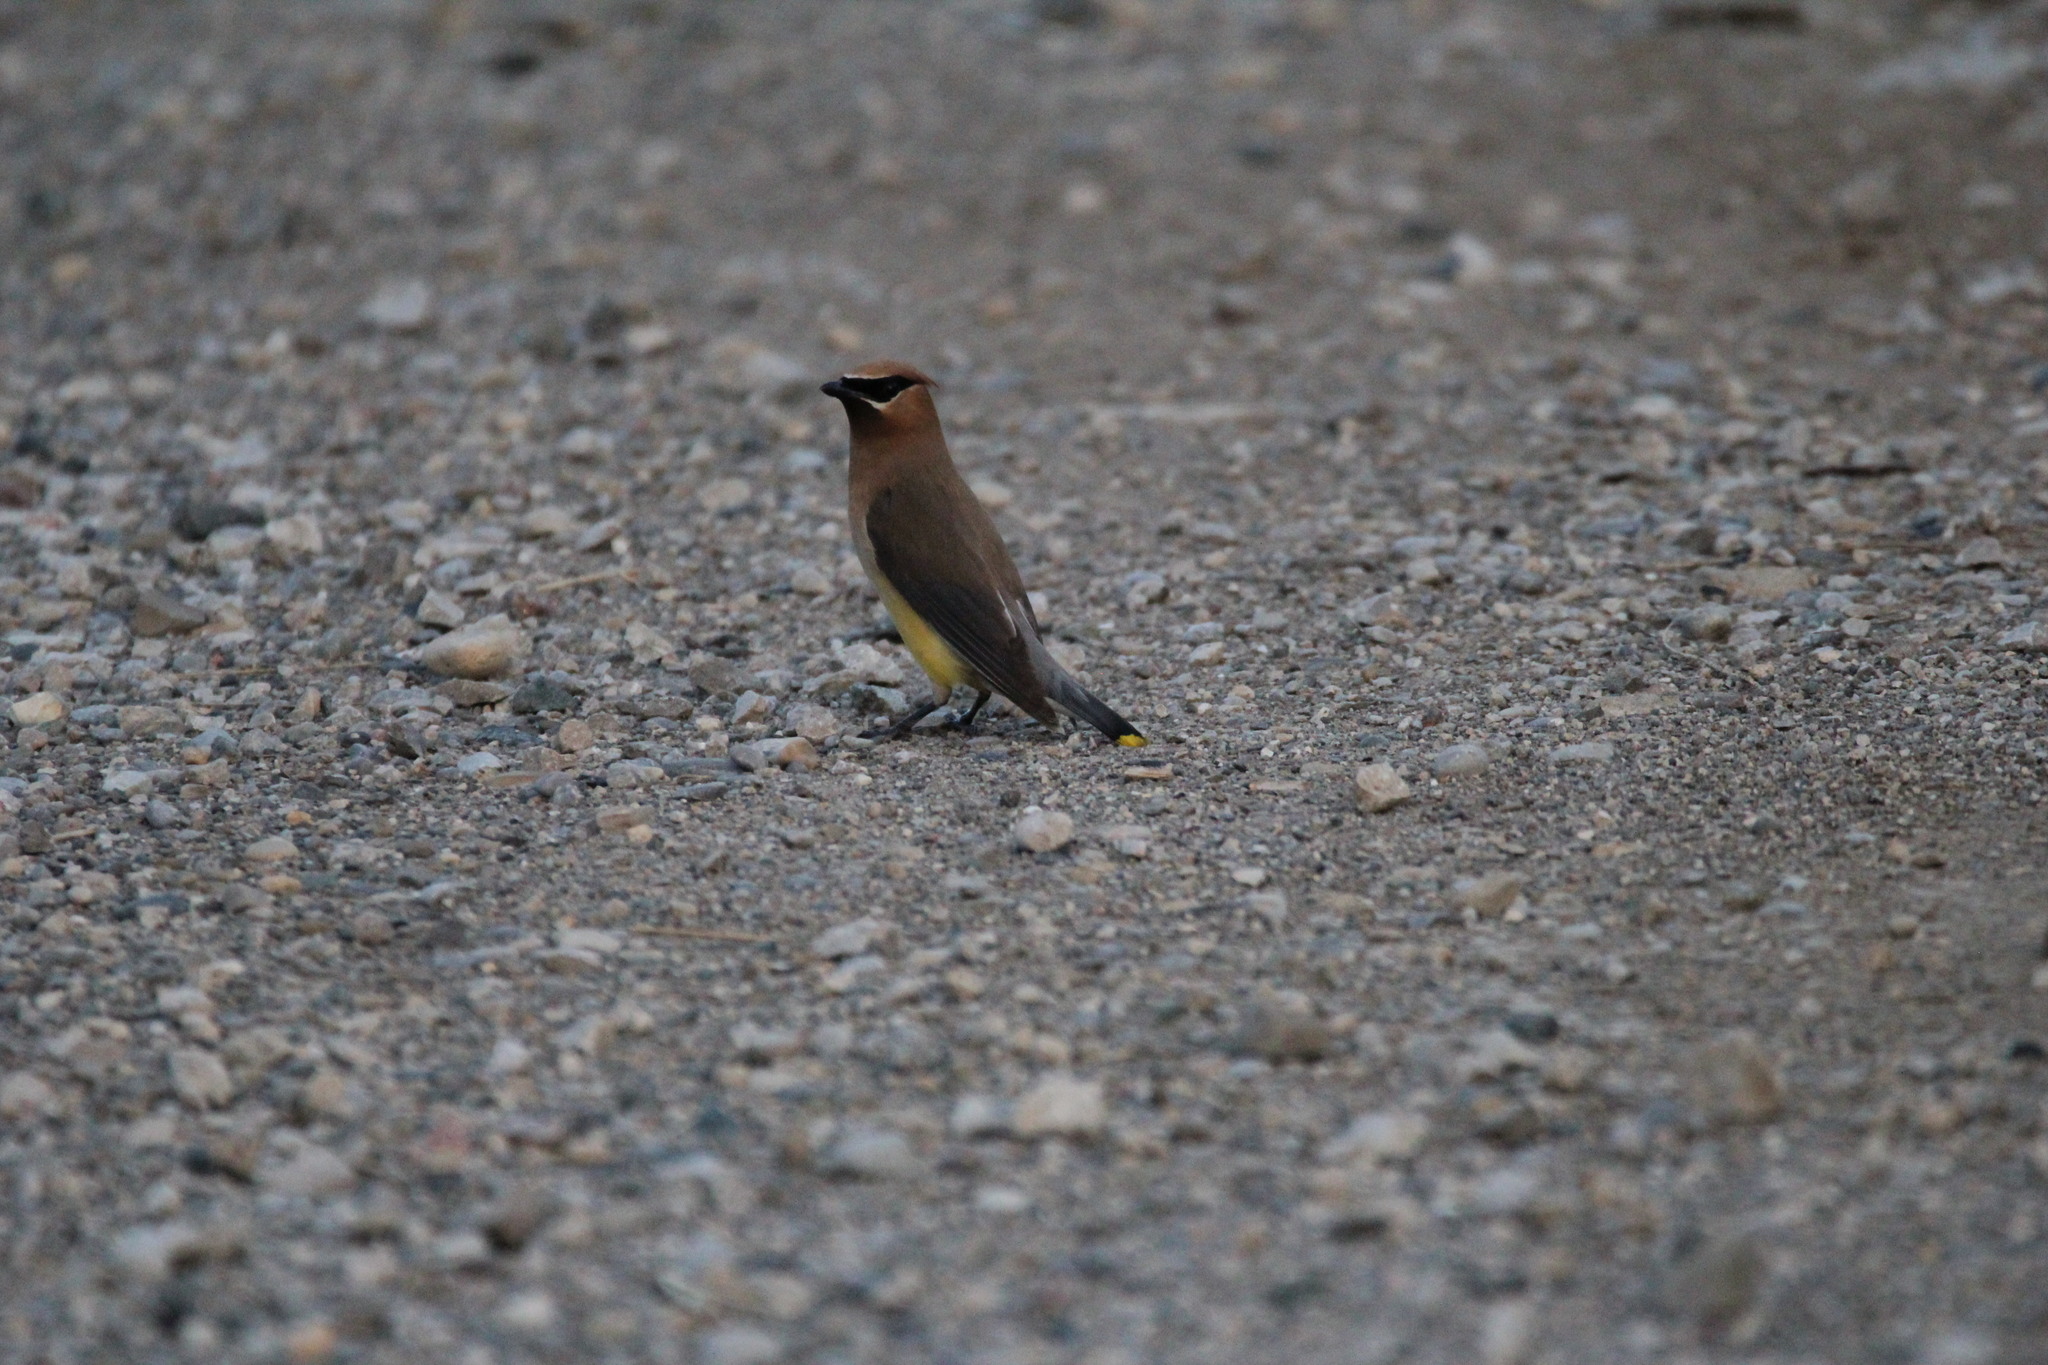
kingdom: Animalia
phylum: Chordata
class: Aves
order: Passeriformes
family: Bombycillidae
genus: Bombycilla
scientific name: Bombycilla cedrorum
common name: Cedar waxwing
